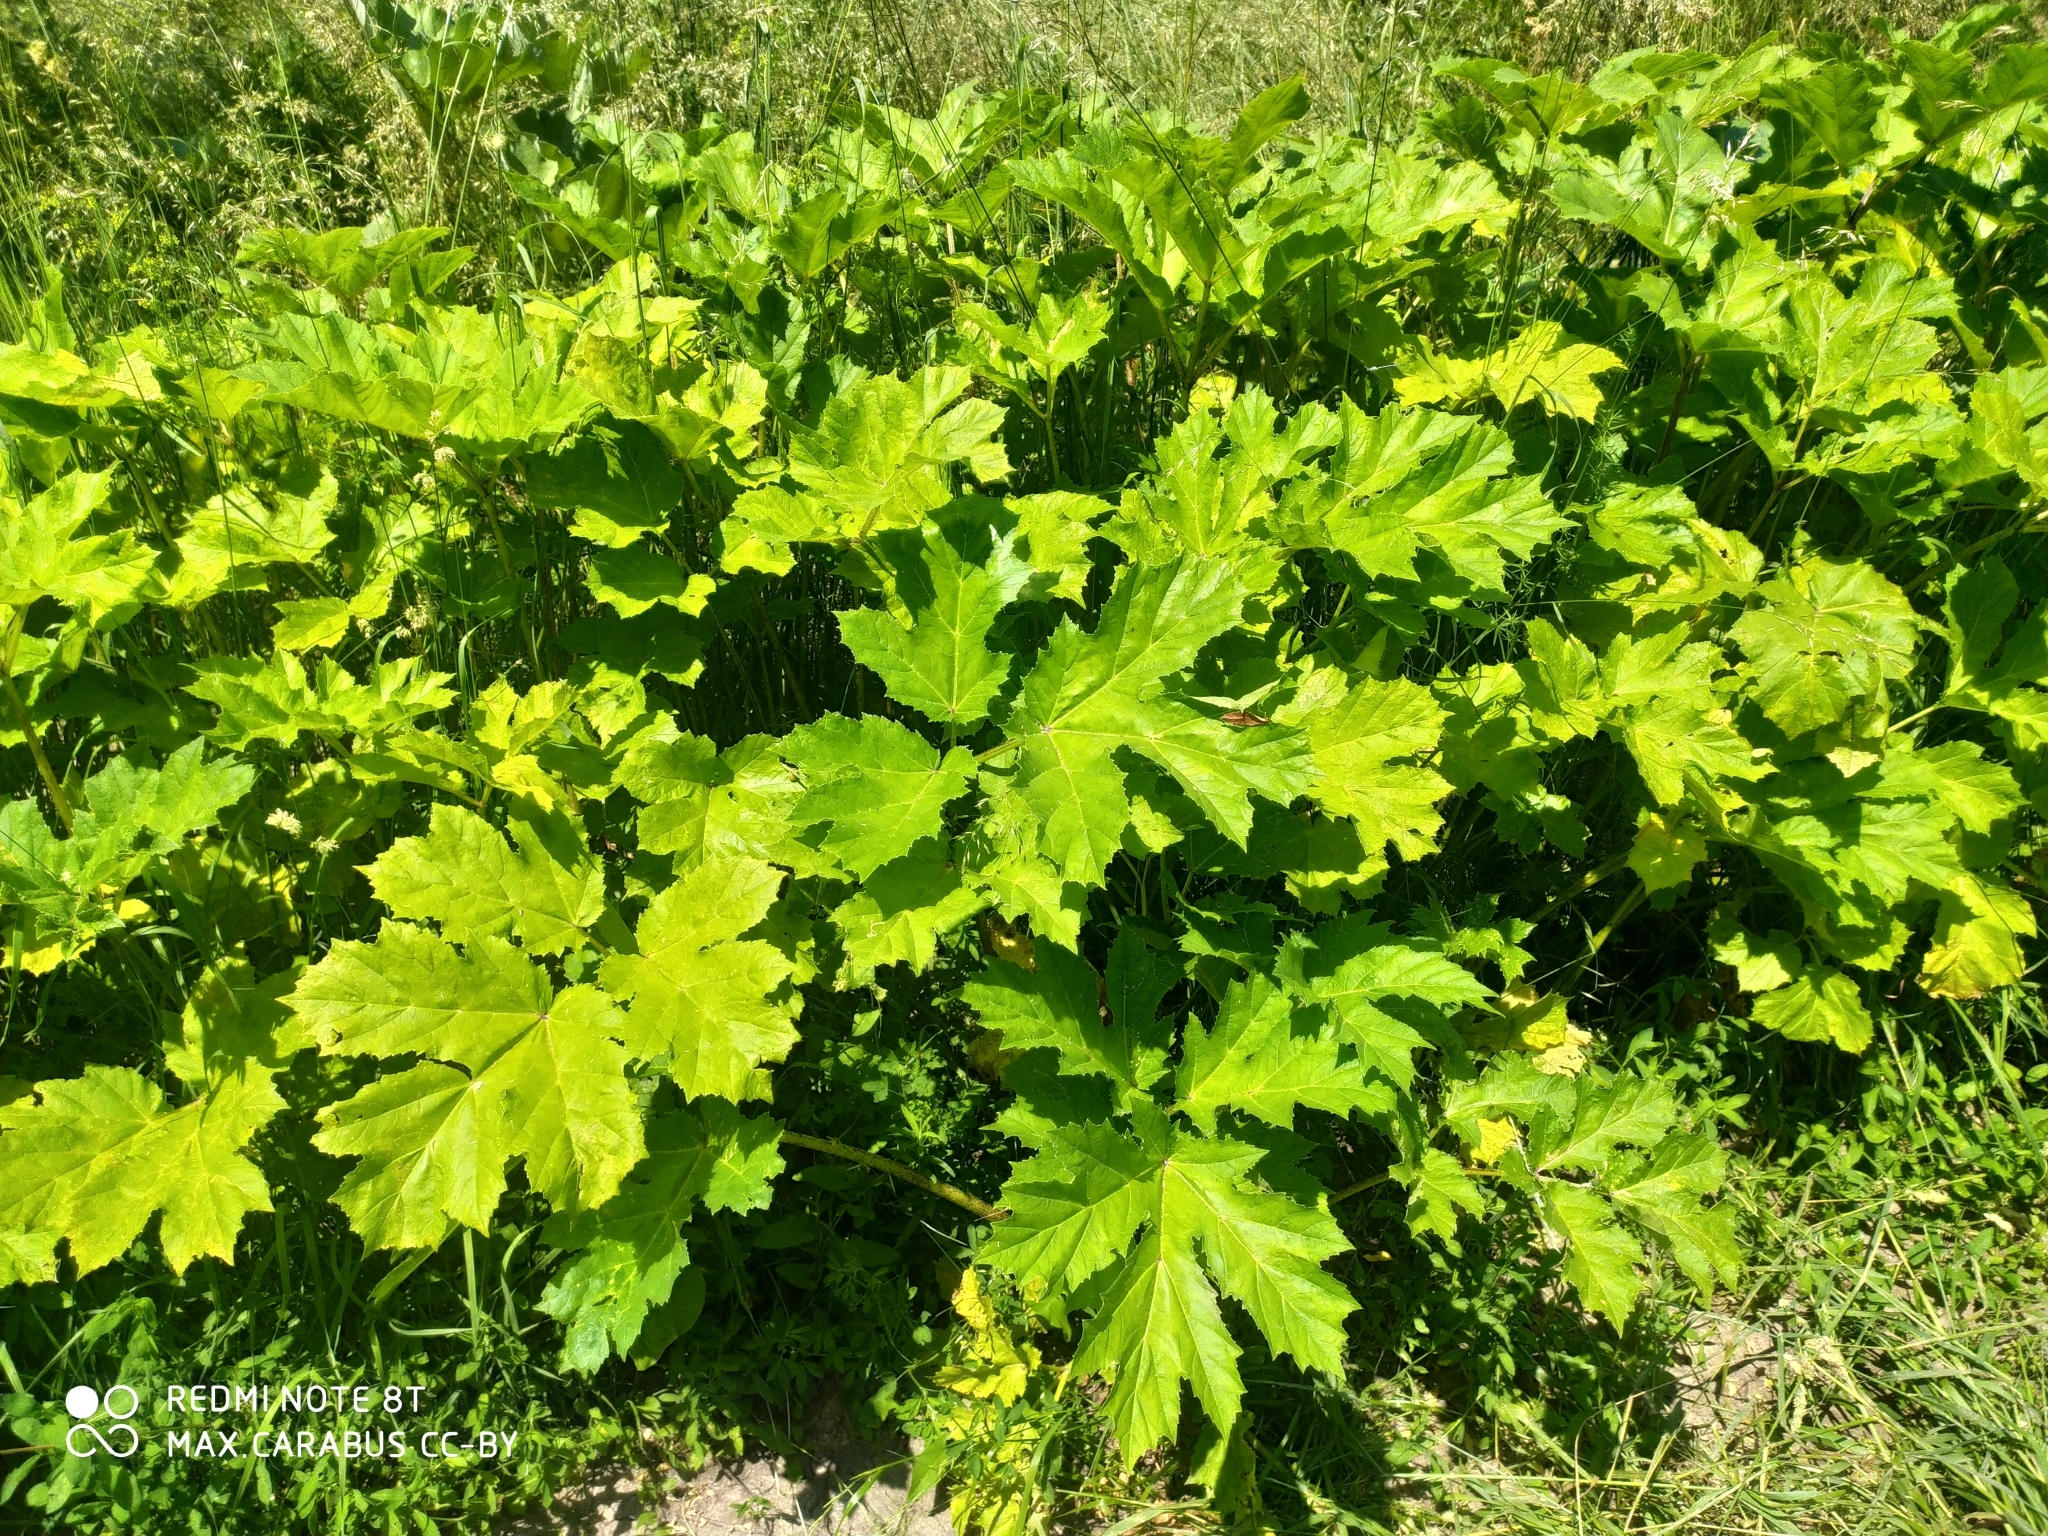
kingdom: Plantae
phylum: Tracheophyta
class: Magnoliopsida
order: Apiales
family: Apiaceae
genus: Heracleum
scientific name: Heracleum sosnowskyi
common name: Sosnowsky's hogweed
